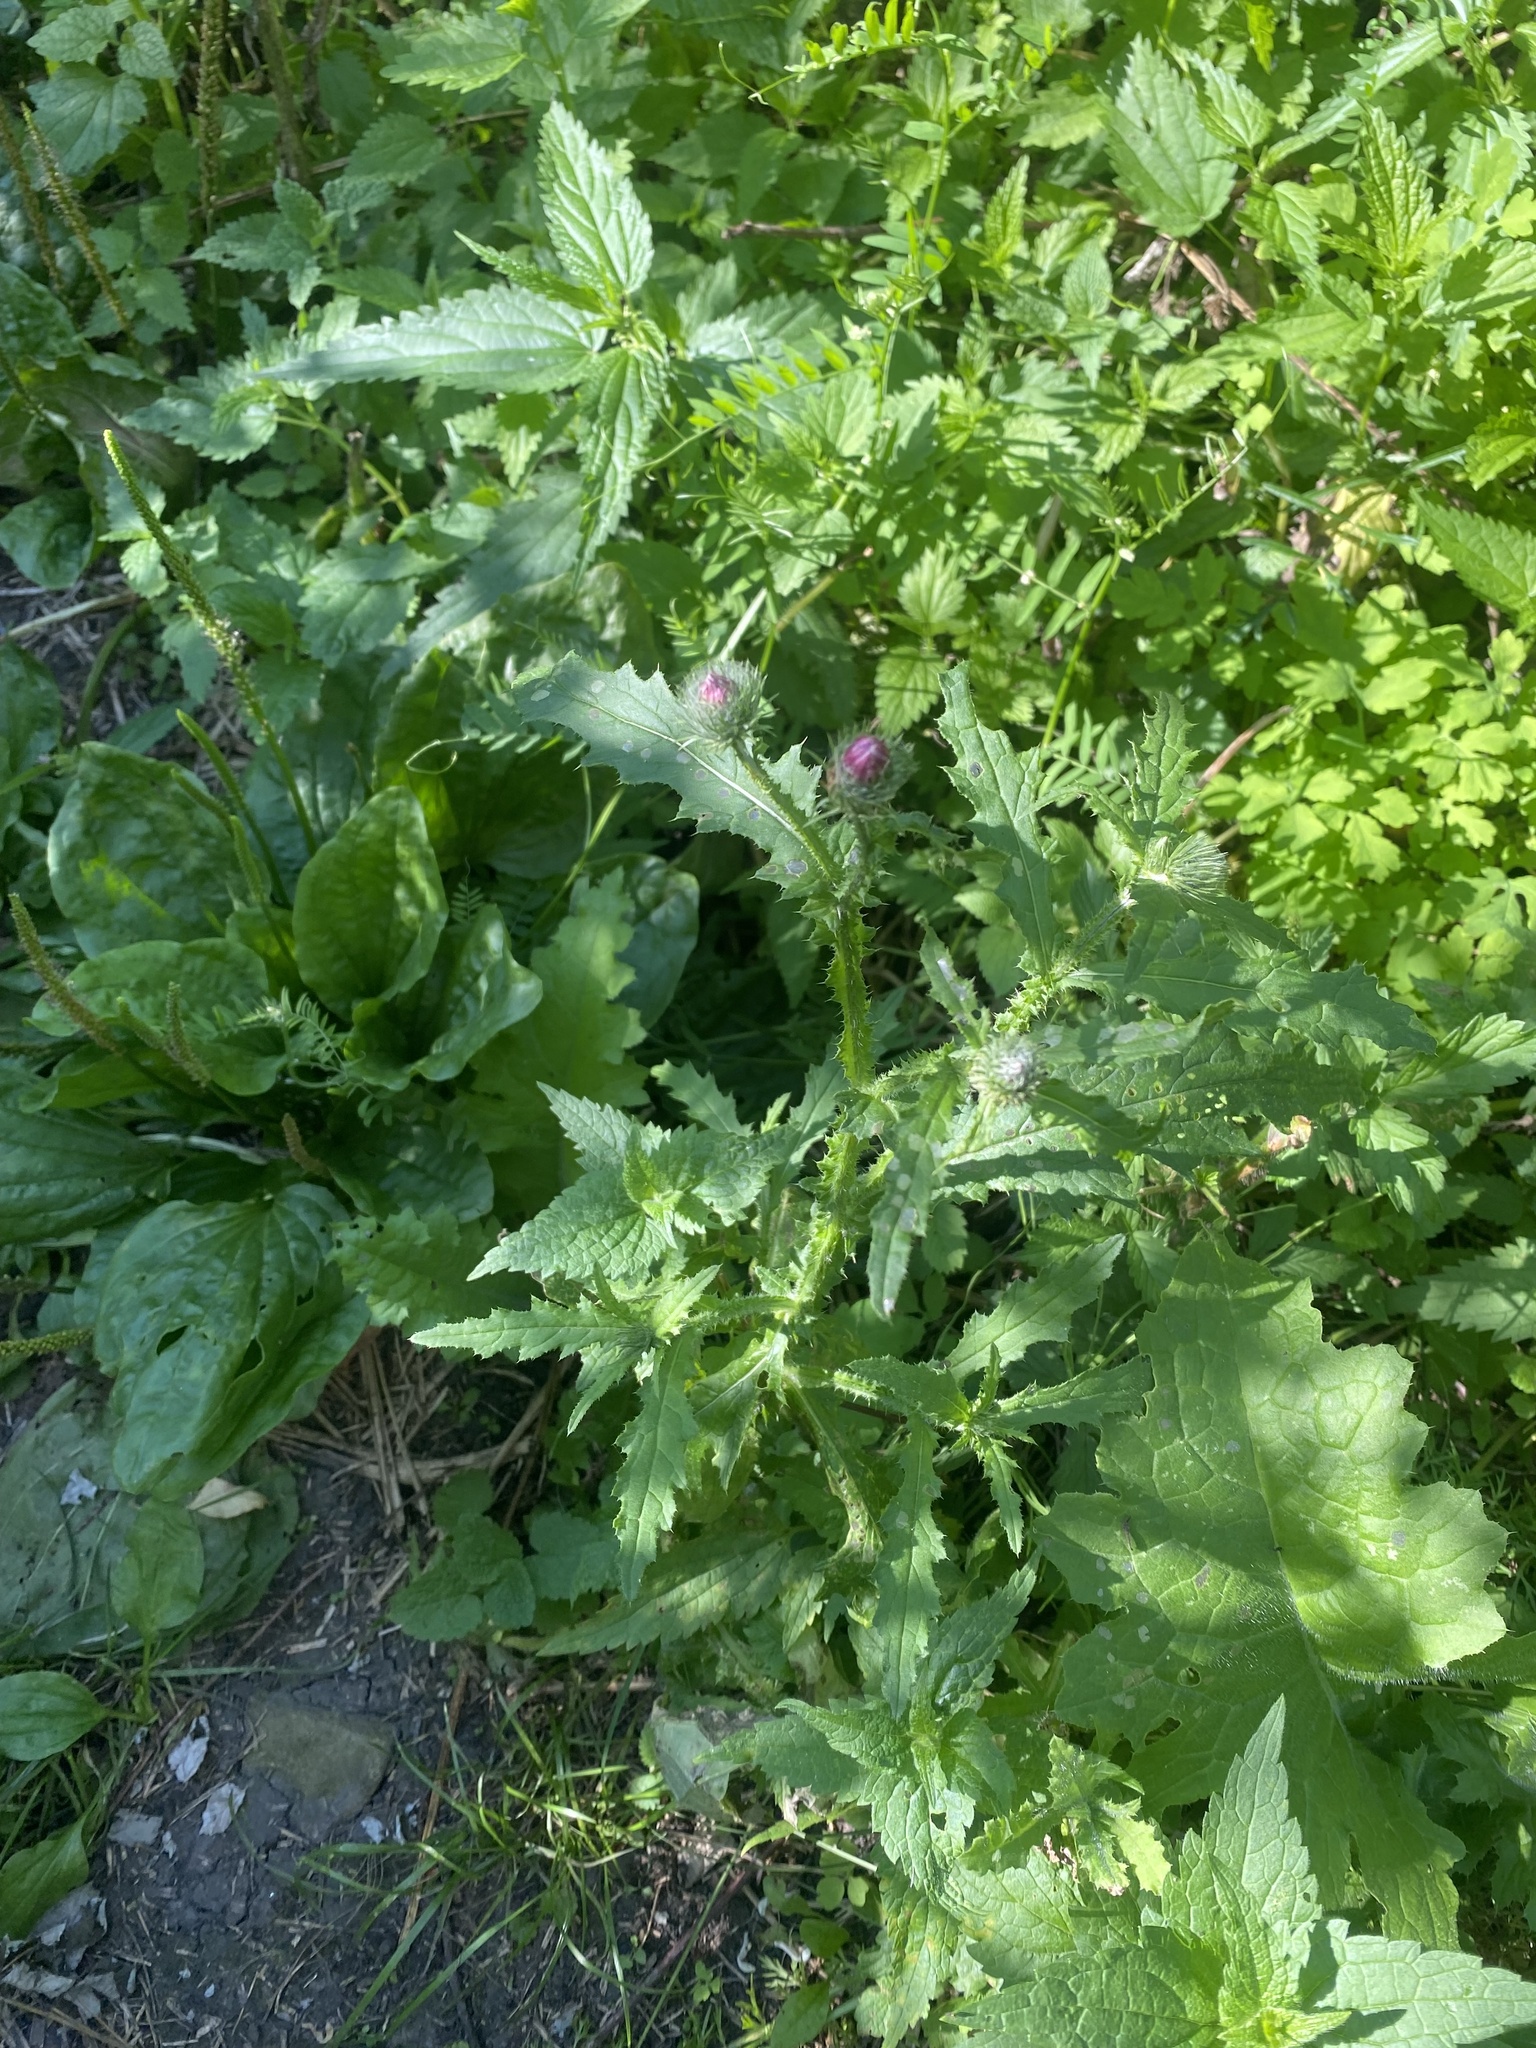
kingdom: Plantae
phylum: Tracheophyta
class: Magnoliopsida
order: Asterales
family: Asteraceae
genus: Carduus
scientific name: Carduus crispus
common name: Welted thistle
